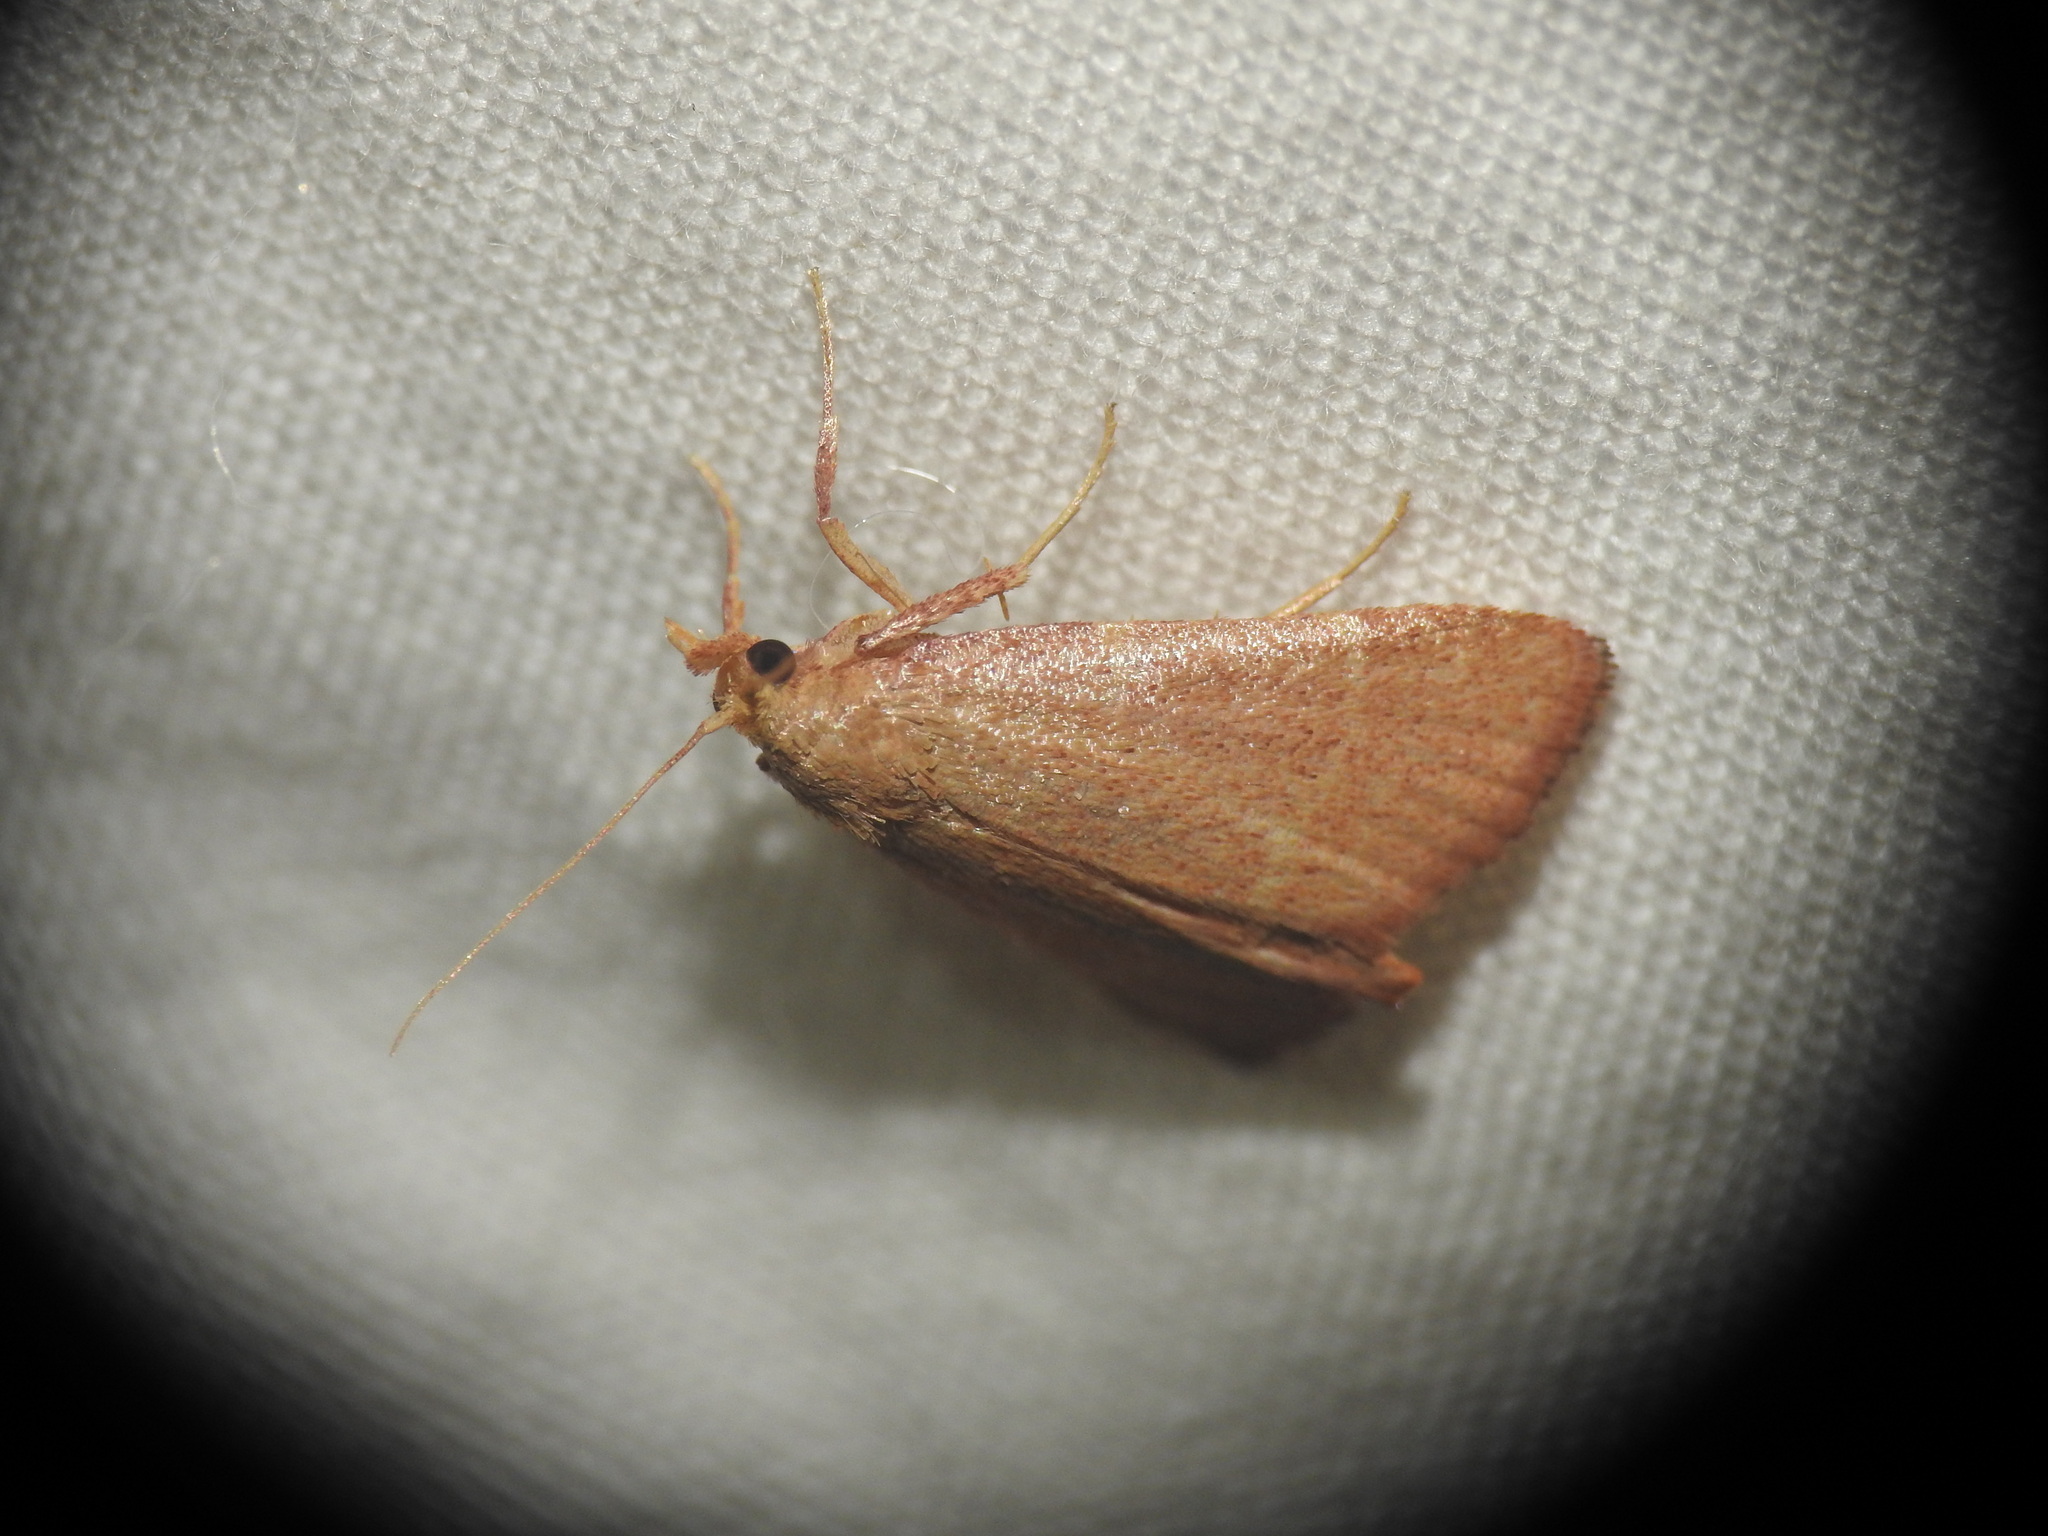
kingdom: Animalia
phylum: Arthropoda
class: Insecta
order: Lepidoptera
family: Pyralidae
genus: Hypsopygia
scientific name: Hypsopygia incarnatalis
